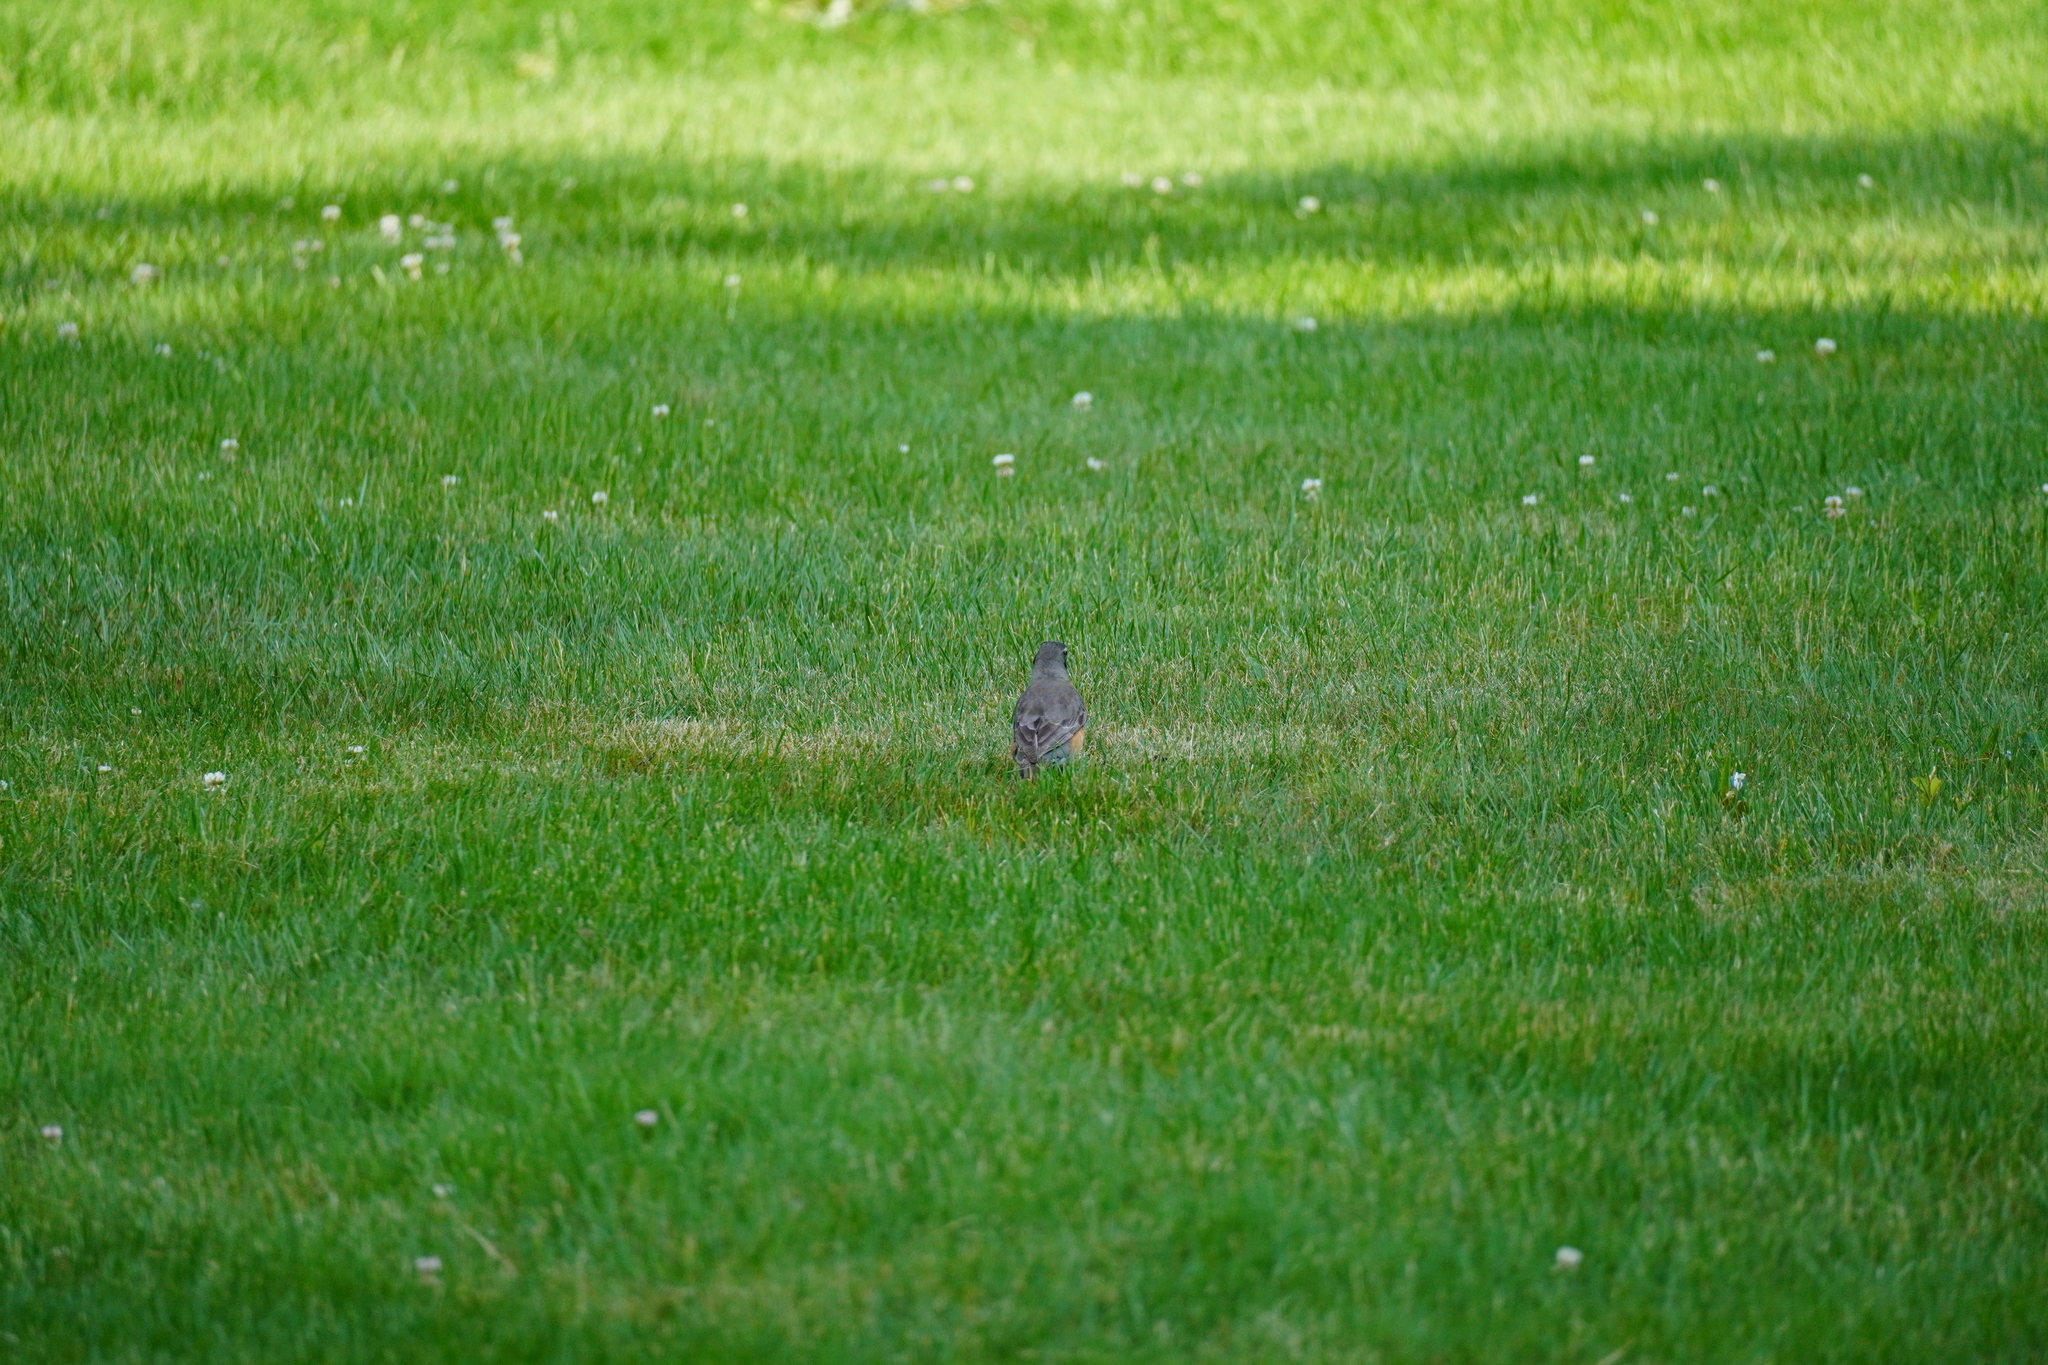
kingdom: Animalia
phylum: Chordata
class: Aves
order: Passeriformes
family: Turdidae
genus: Turdus
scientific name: Turdus migratorius
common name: American robin
